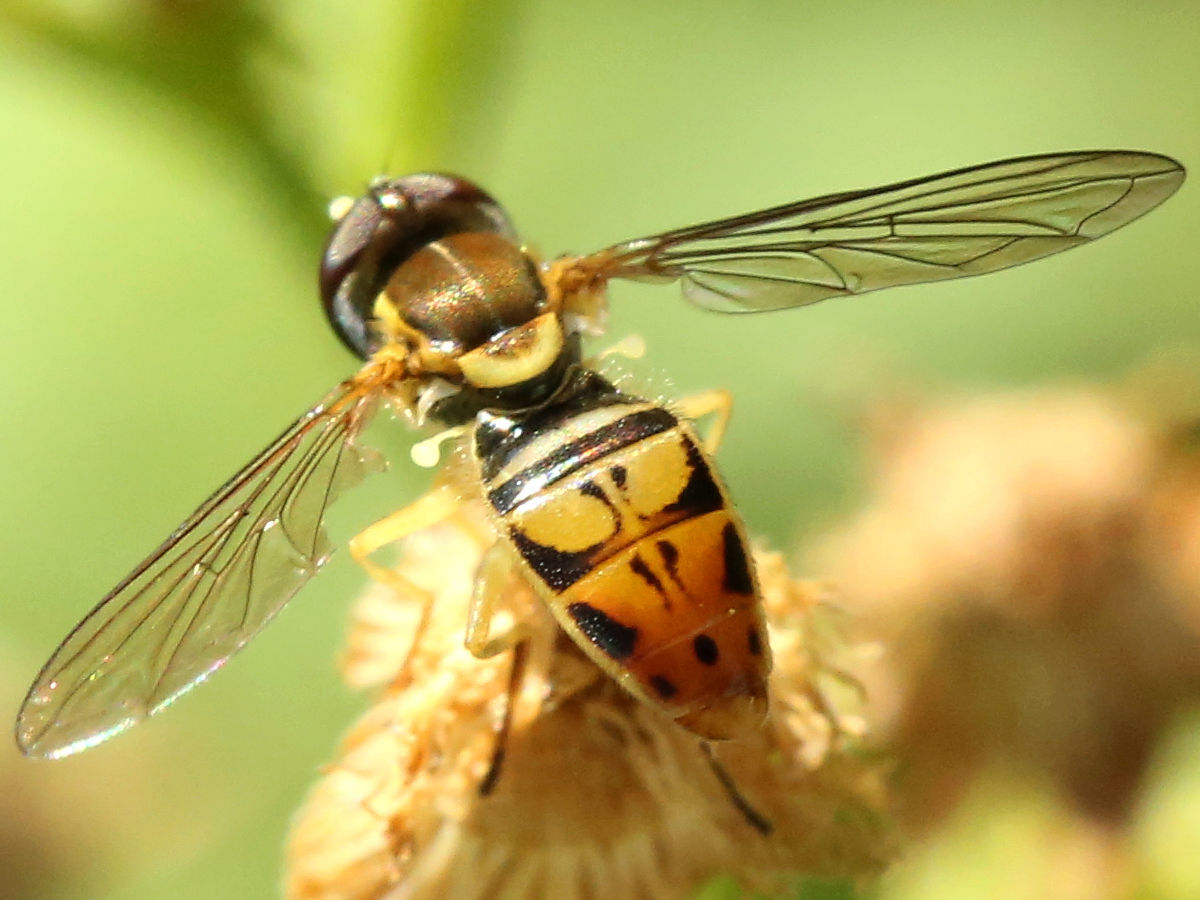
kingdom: Animalia
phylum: Arthropoda
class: Insecta
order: Diptera
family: Syrphidae
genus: Toxomerus
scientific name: Toxomerus marginatus
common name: Syrphid fly
